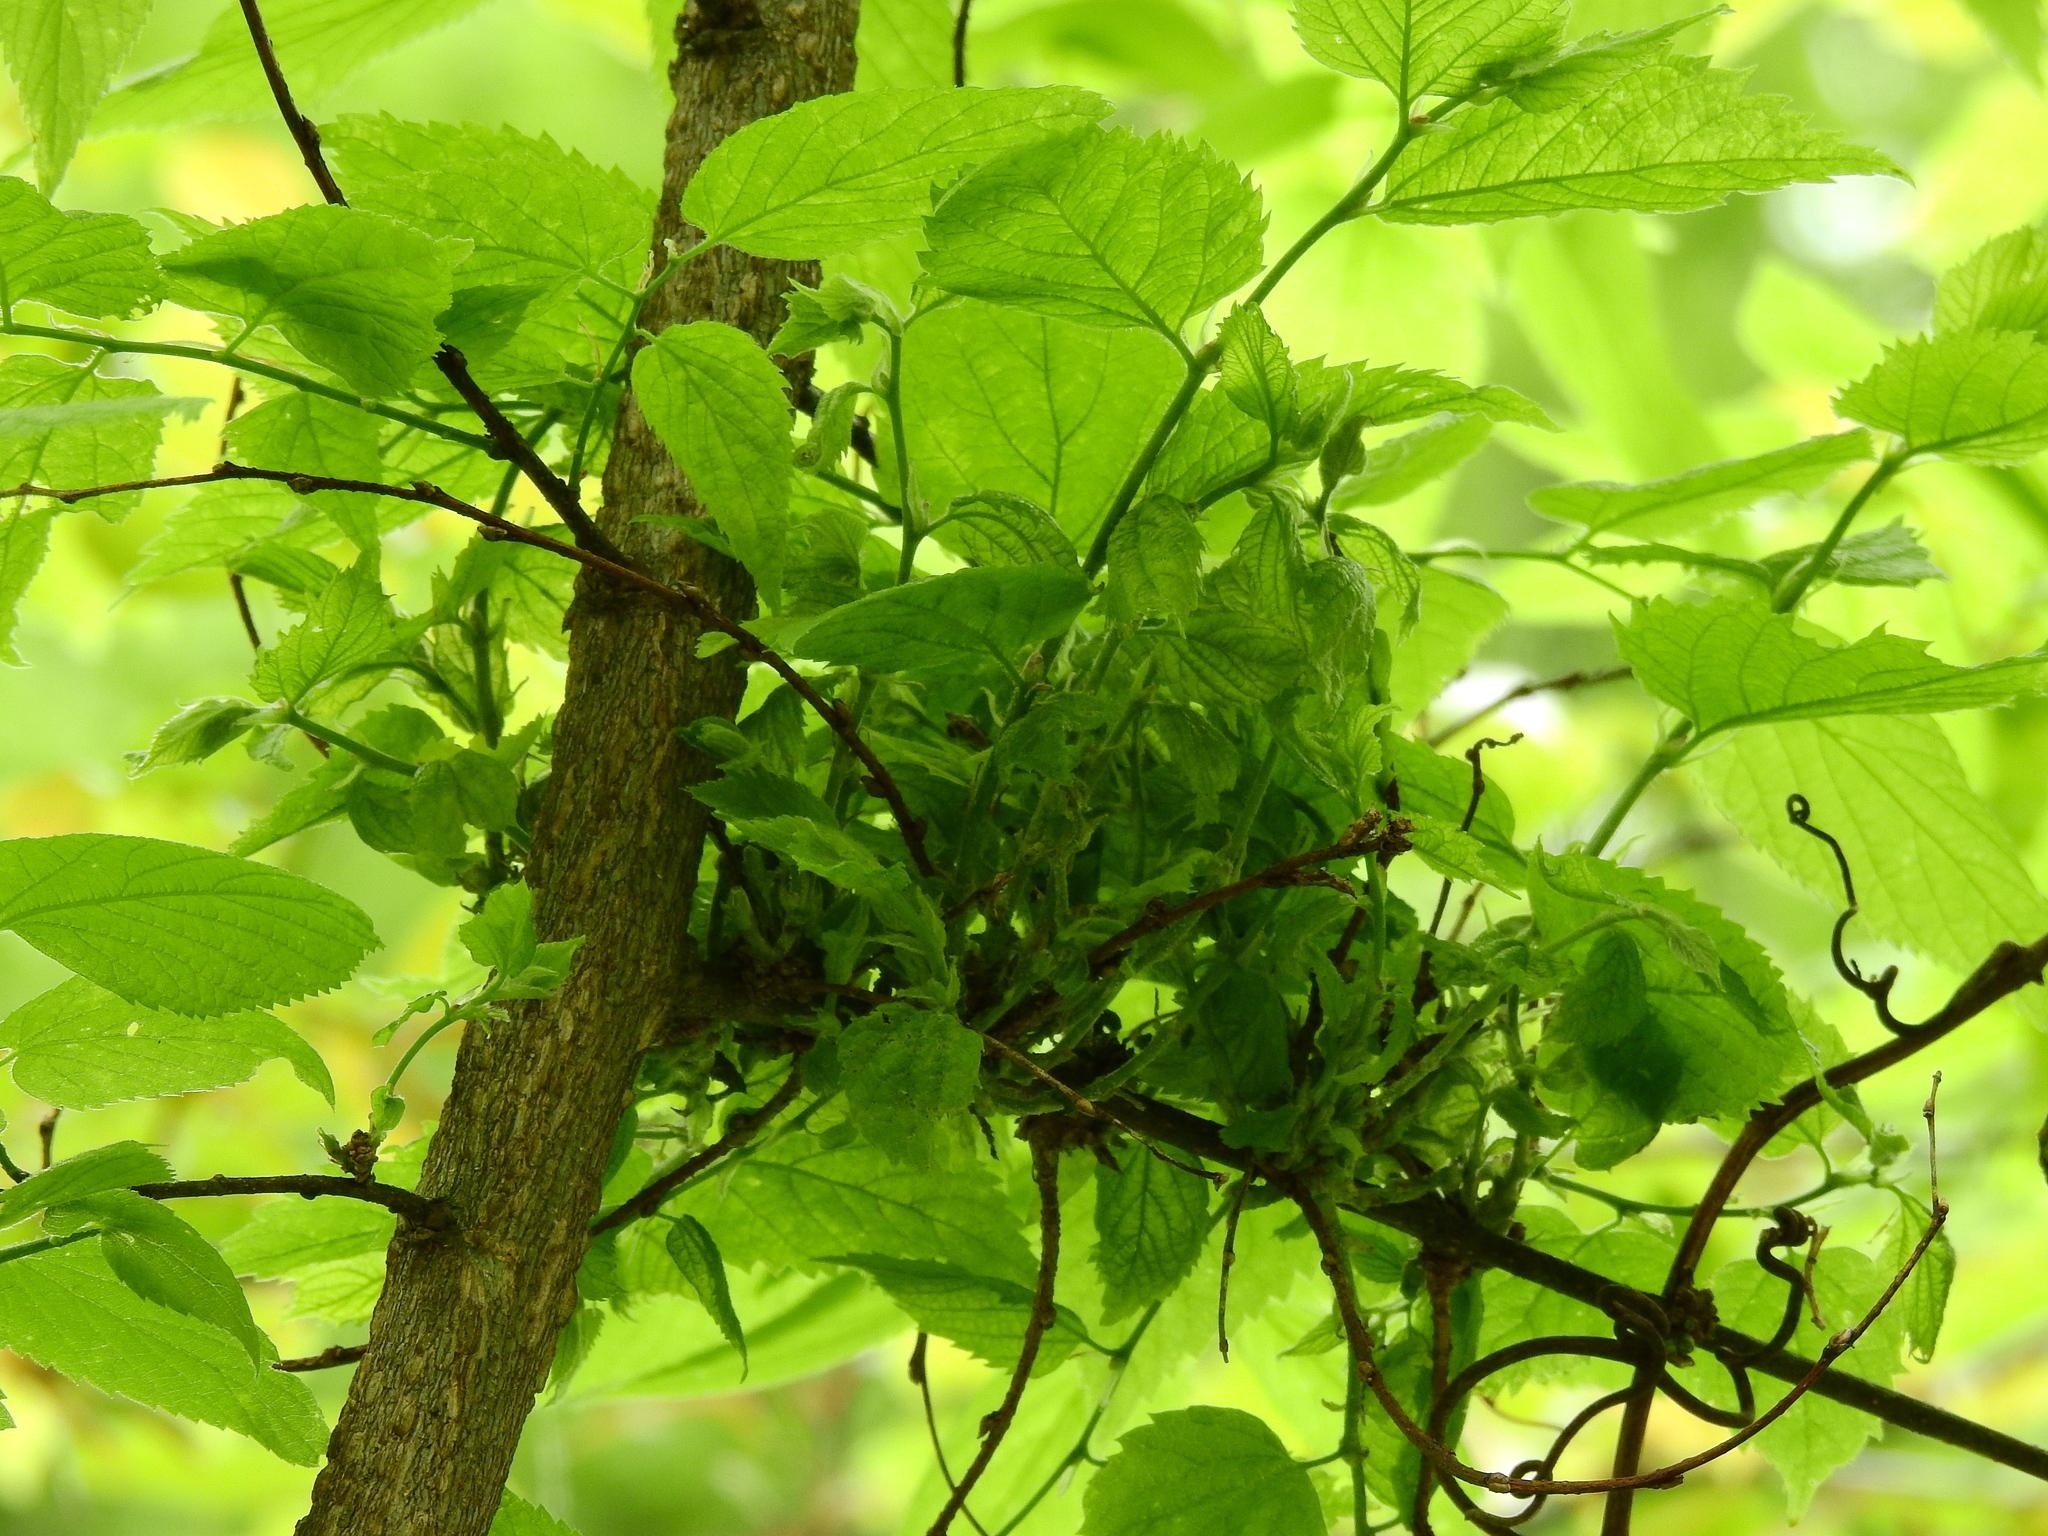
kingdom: Animalia
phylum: Arthropoda
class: Arachnida
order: Trombidiformes
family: Eriophyidae
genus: Aceria
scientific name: Aceria
